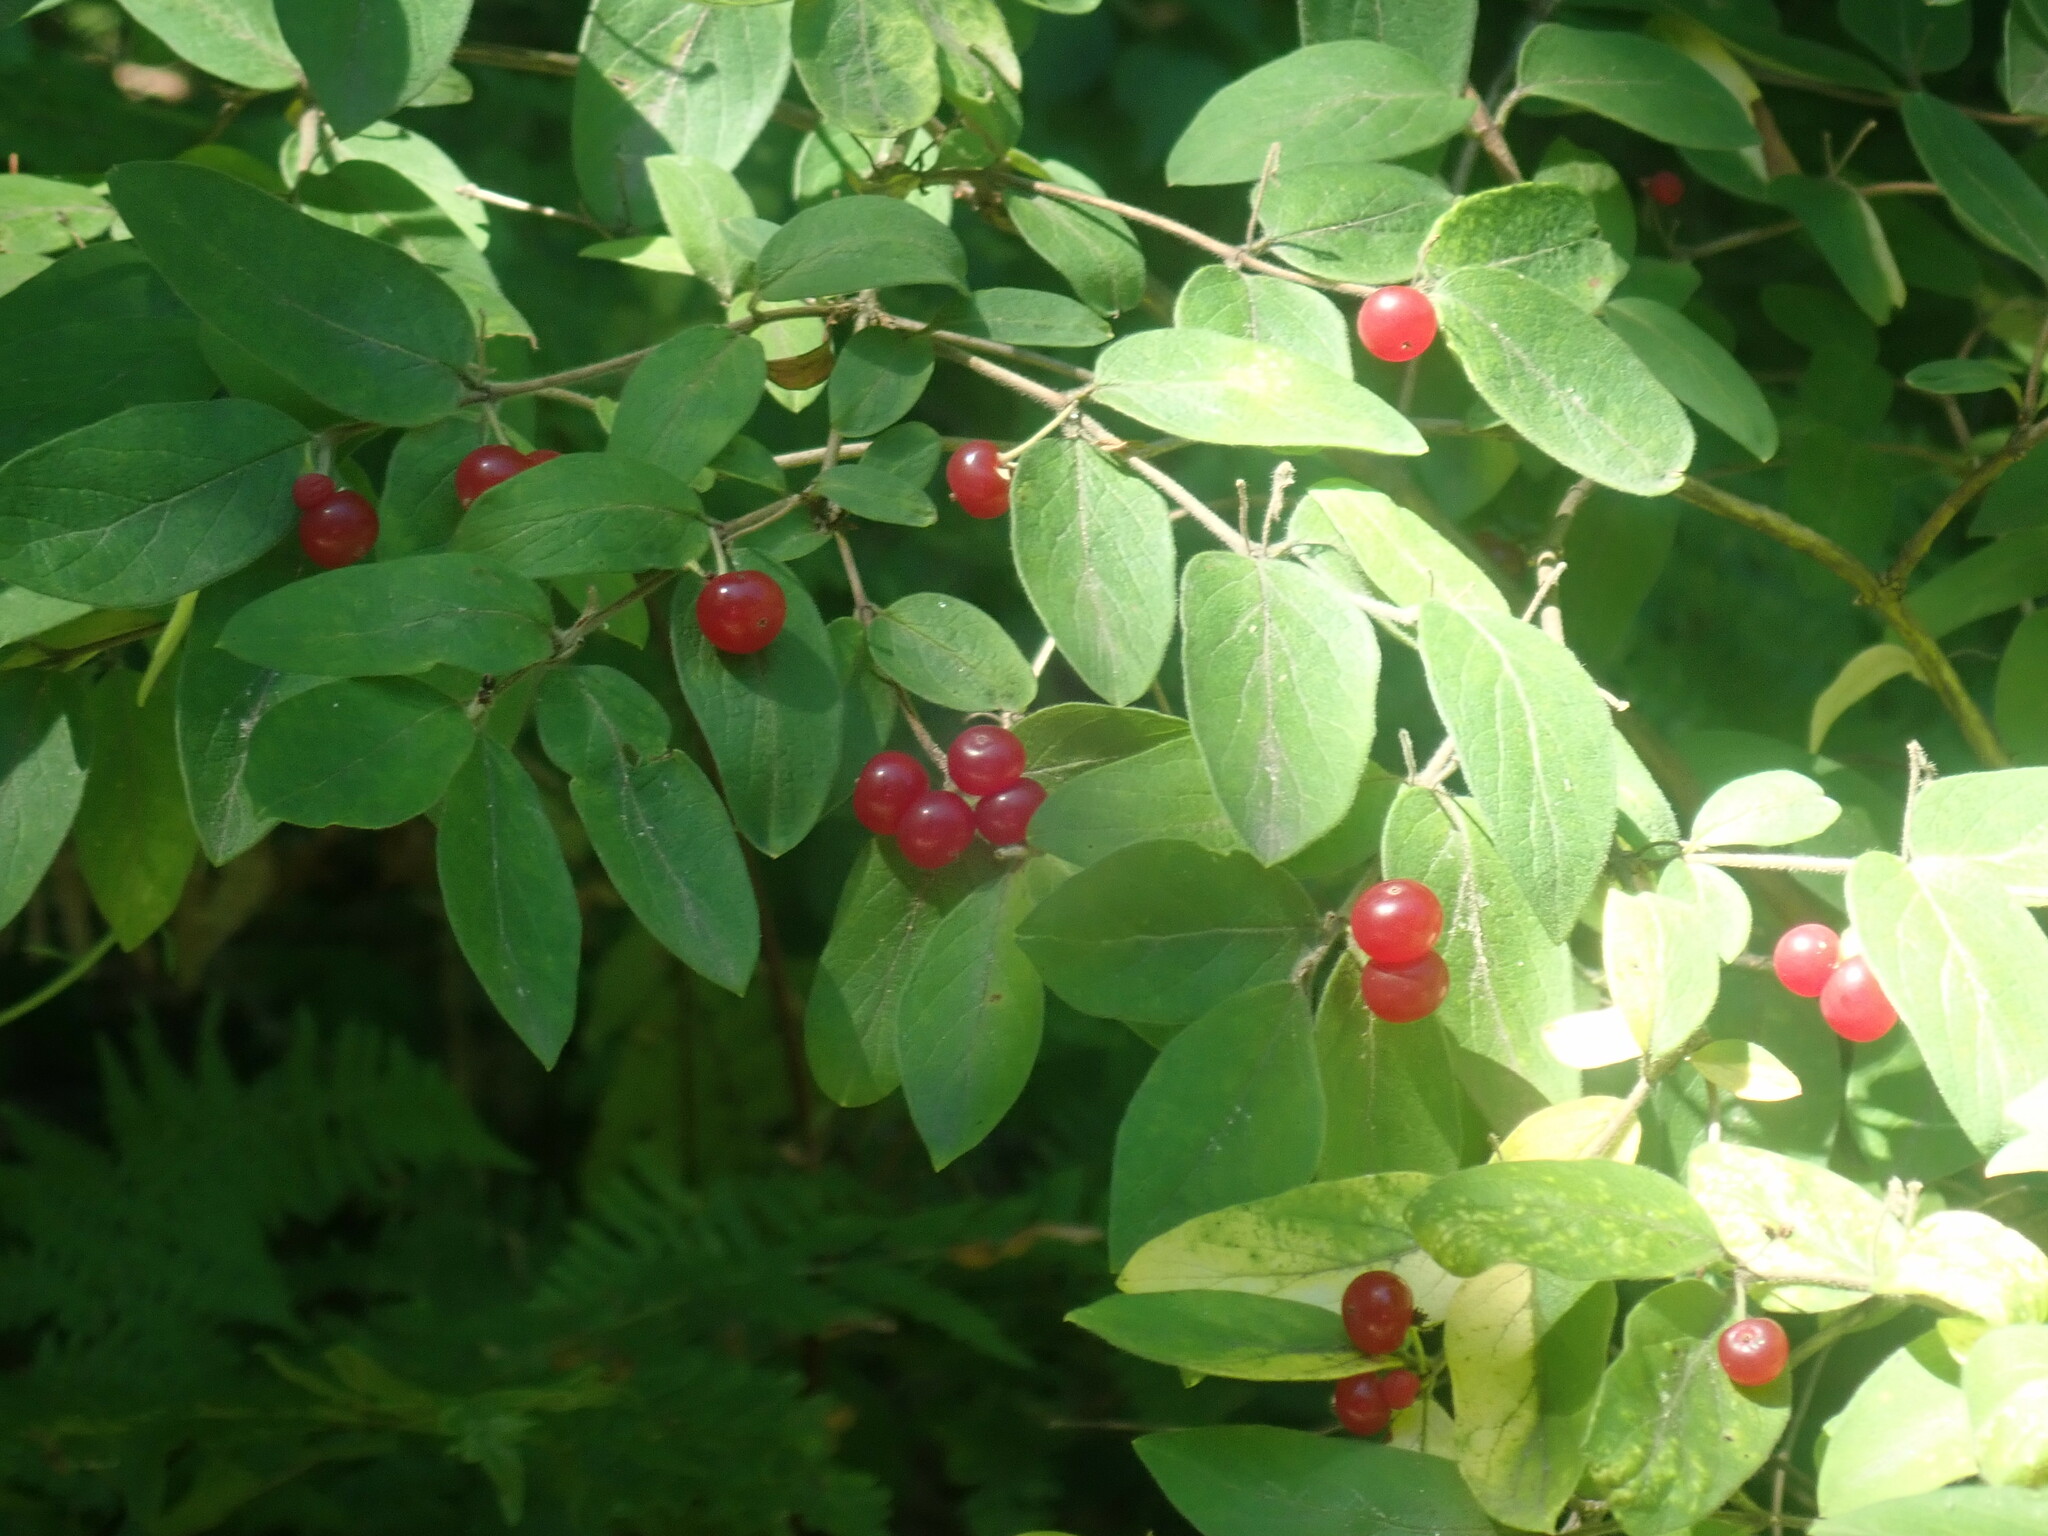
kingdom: Plantae
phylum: Tracheophyta
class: Magnoliopsida
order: Dipsacales
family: Caprifoliaceae
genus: Lonicera
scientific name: Lonicera
